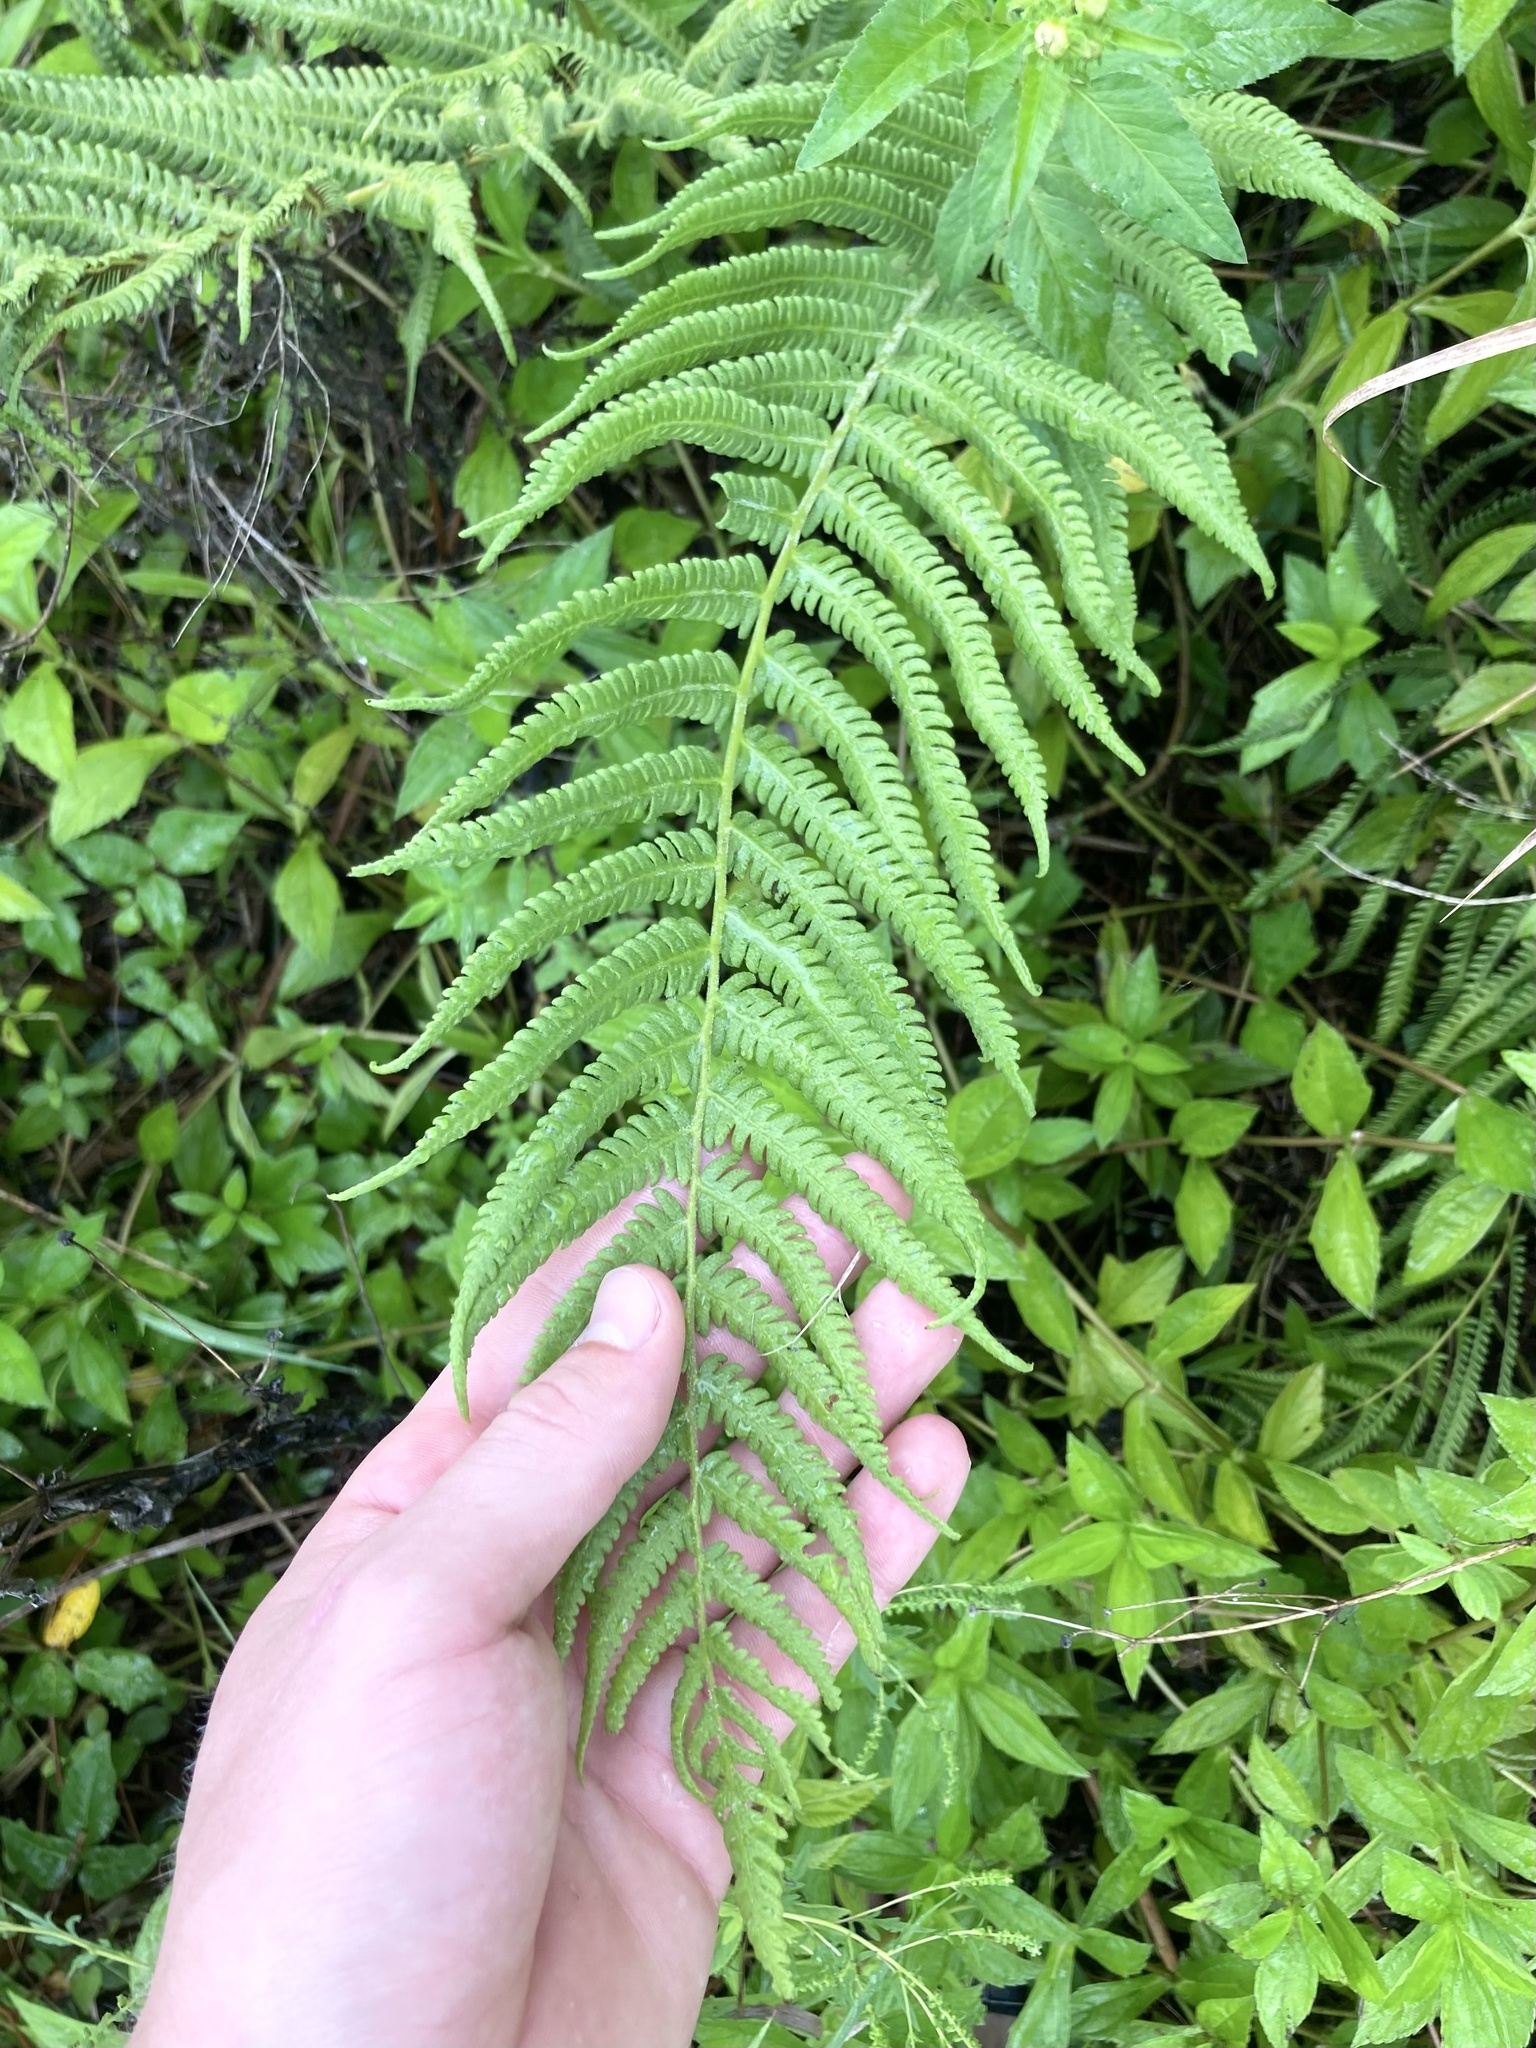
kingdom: Plantae
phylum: Tracheophyta
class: Polypodiopsida
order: Polypodiales
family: Thelypteridaceae
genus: Pelazoneuron
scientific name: Pelazoneuron kunthii
